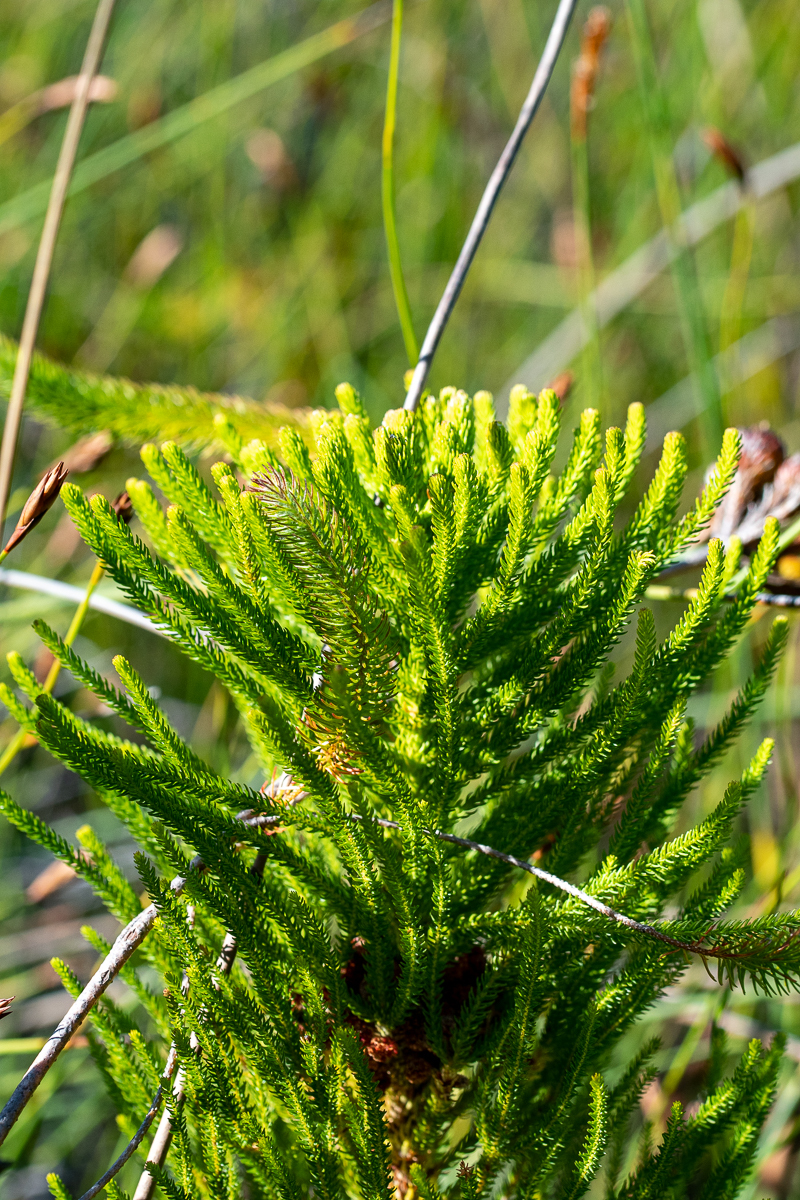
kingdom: Plantae
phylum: Tracheophyta
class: Magnoliopsida
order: Bruniales
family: Bruniaceae
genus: Berzelia
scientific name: Berzelia alopecurioides
